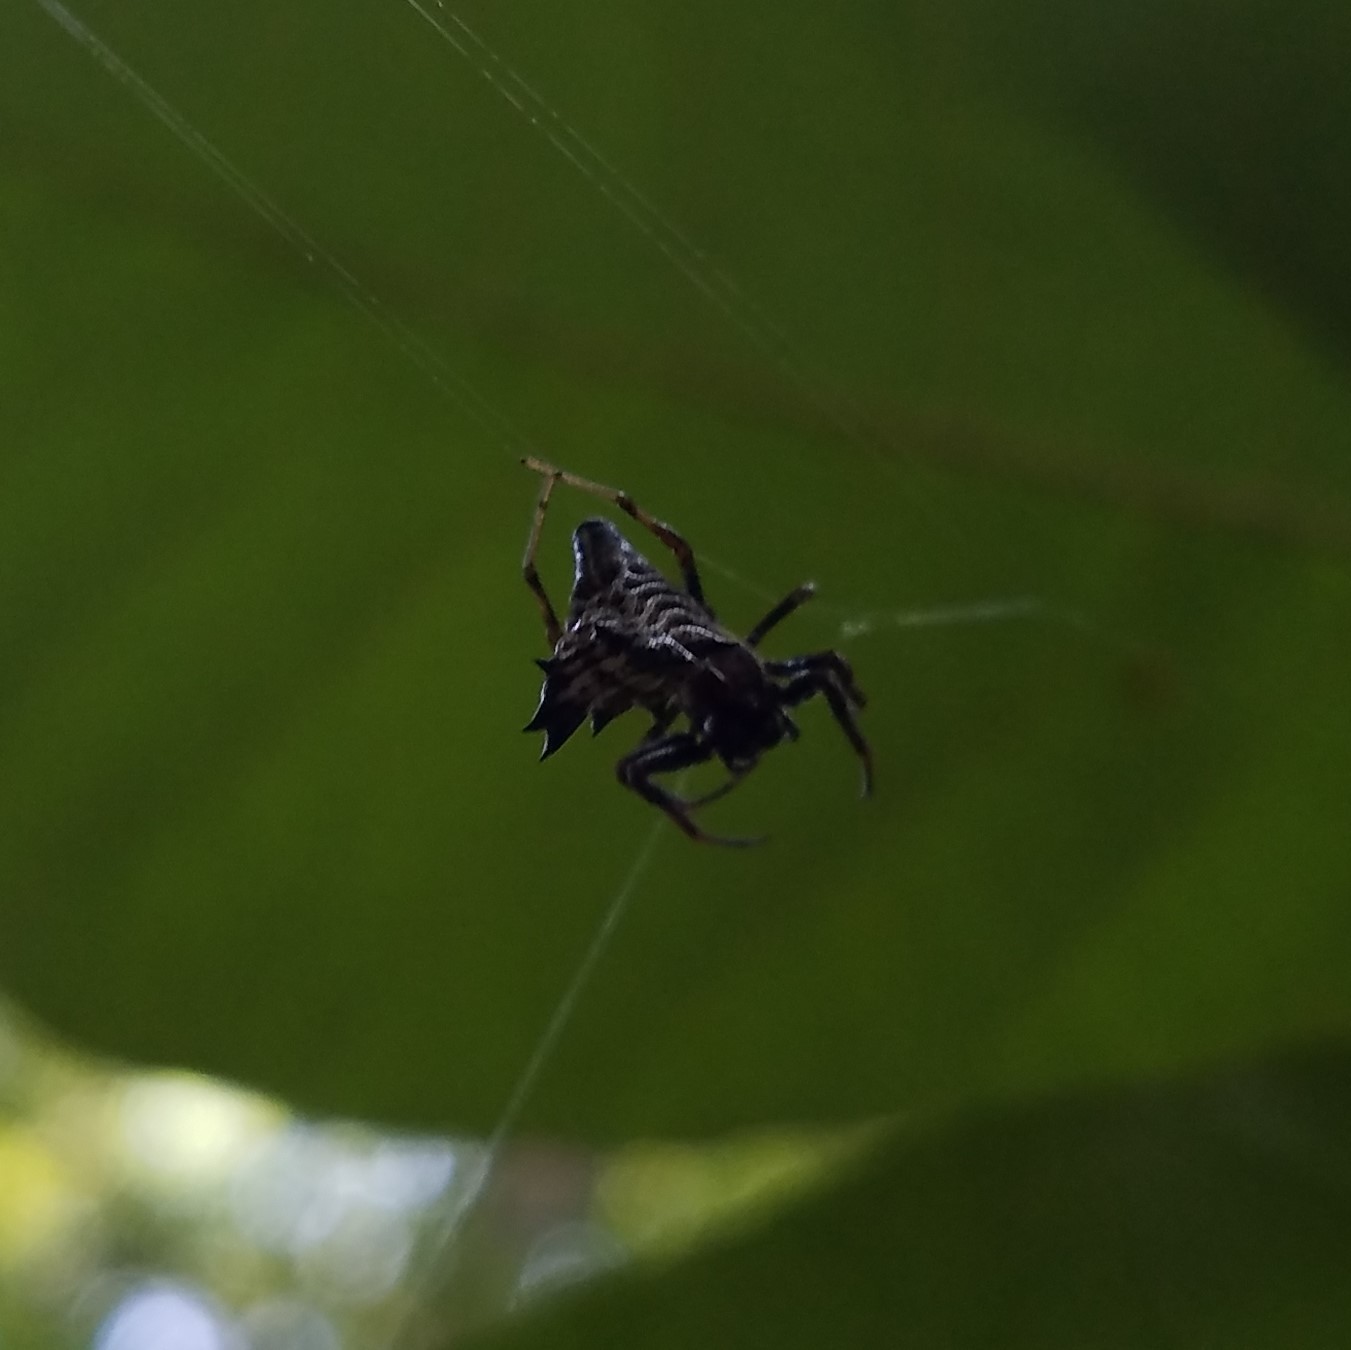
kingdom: Animalia
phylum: Arthropoda
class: Arachnida
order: Araneae
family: Araneidae
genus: Micrathena
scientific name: Micrathena gracilis
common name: Orb weavers
